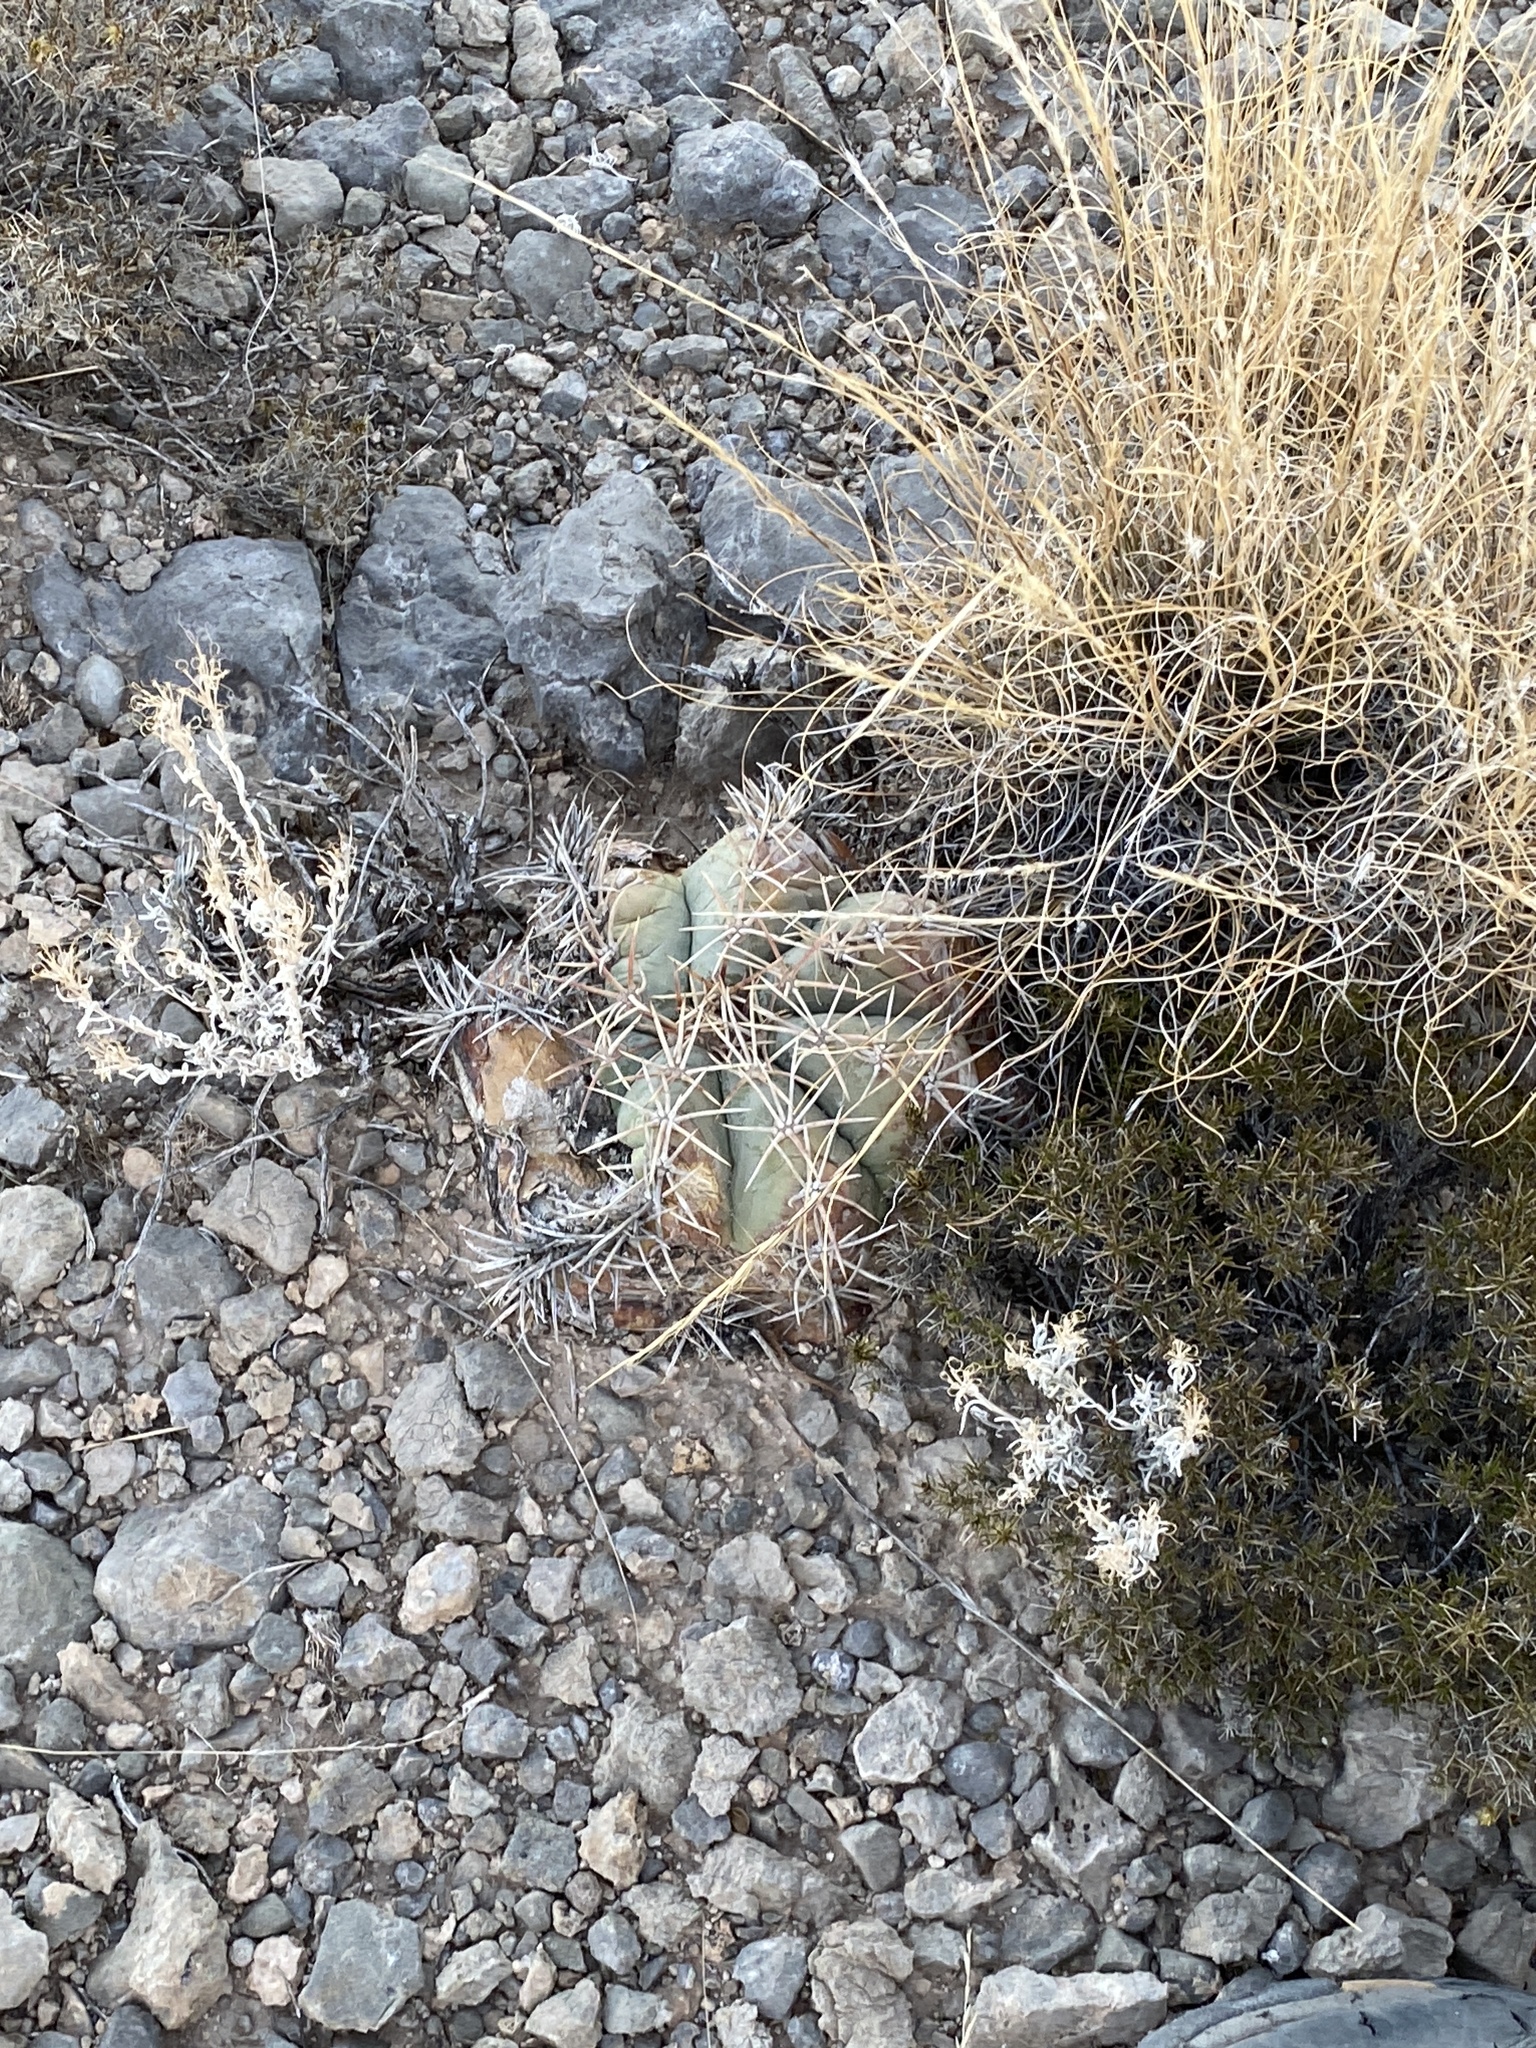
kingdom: Plantae
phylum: Tracheophyta
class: Magnoliopsida
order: Caryophyllales
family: Cactaceae
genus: Echinocactus
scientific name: Echinocactus horizonthalonius
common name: Devilshead
